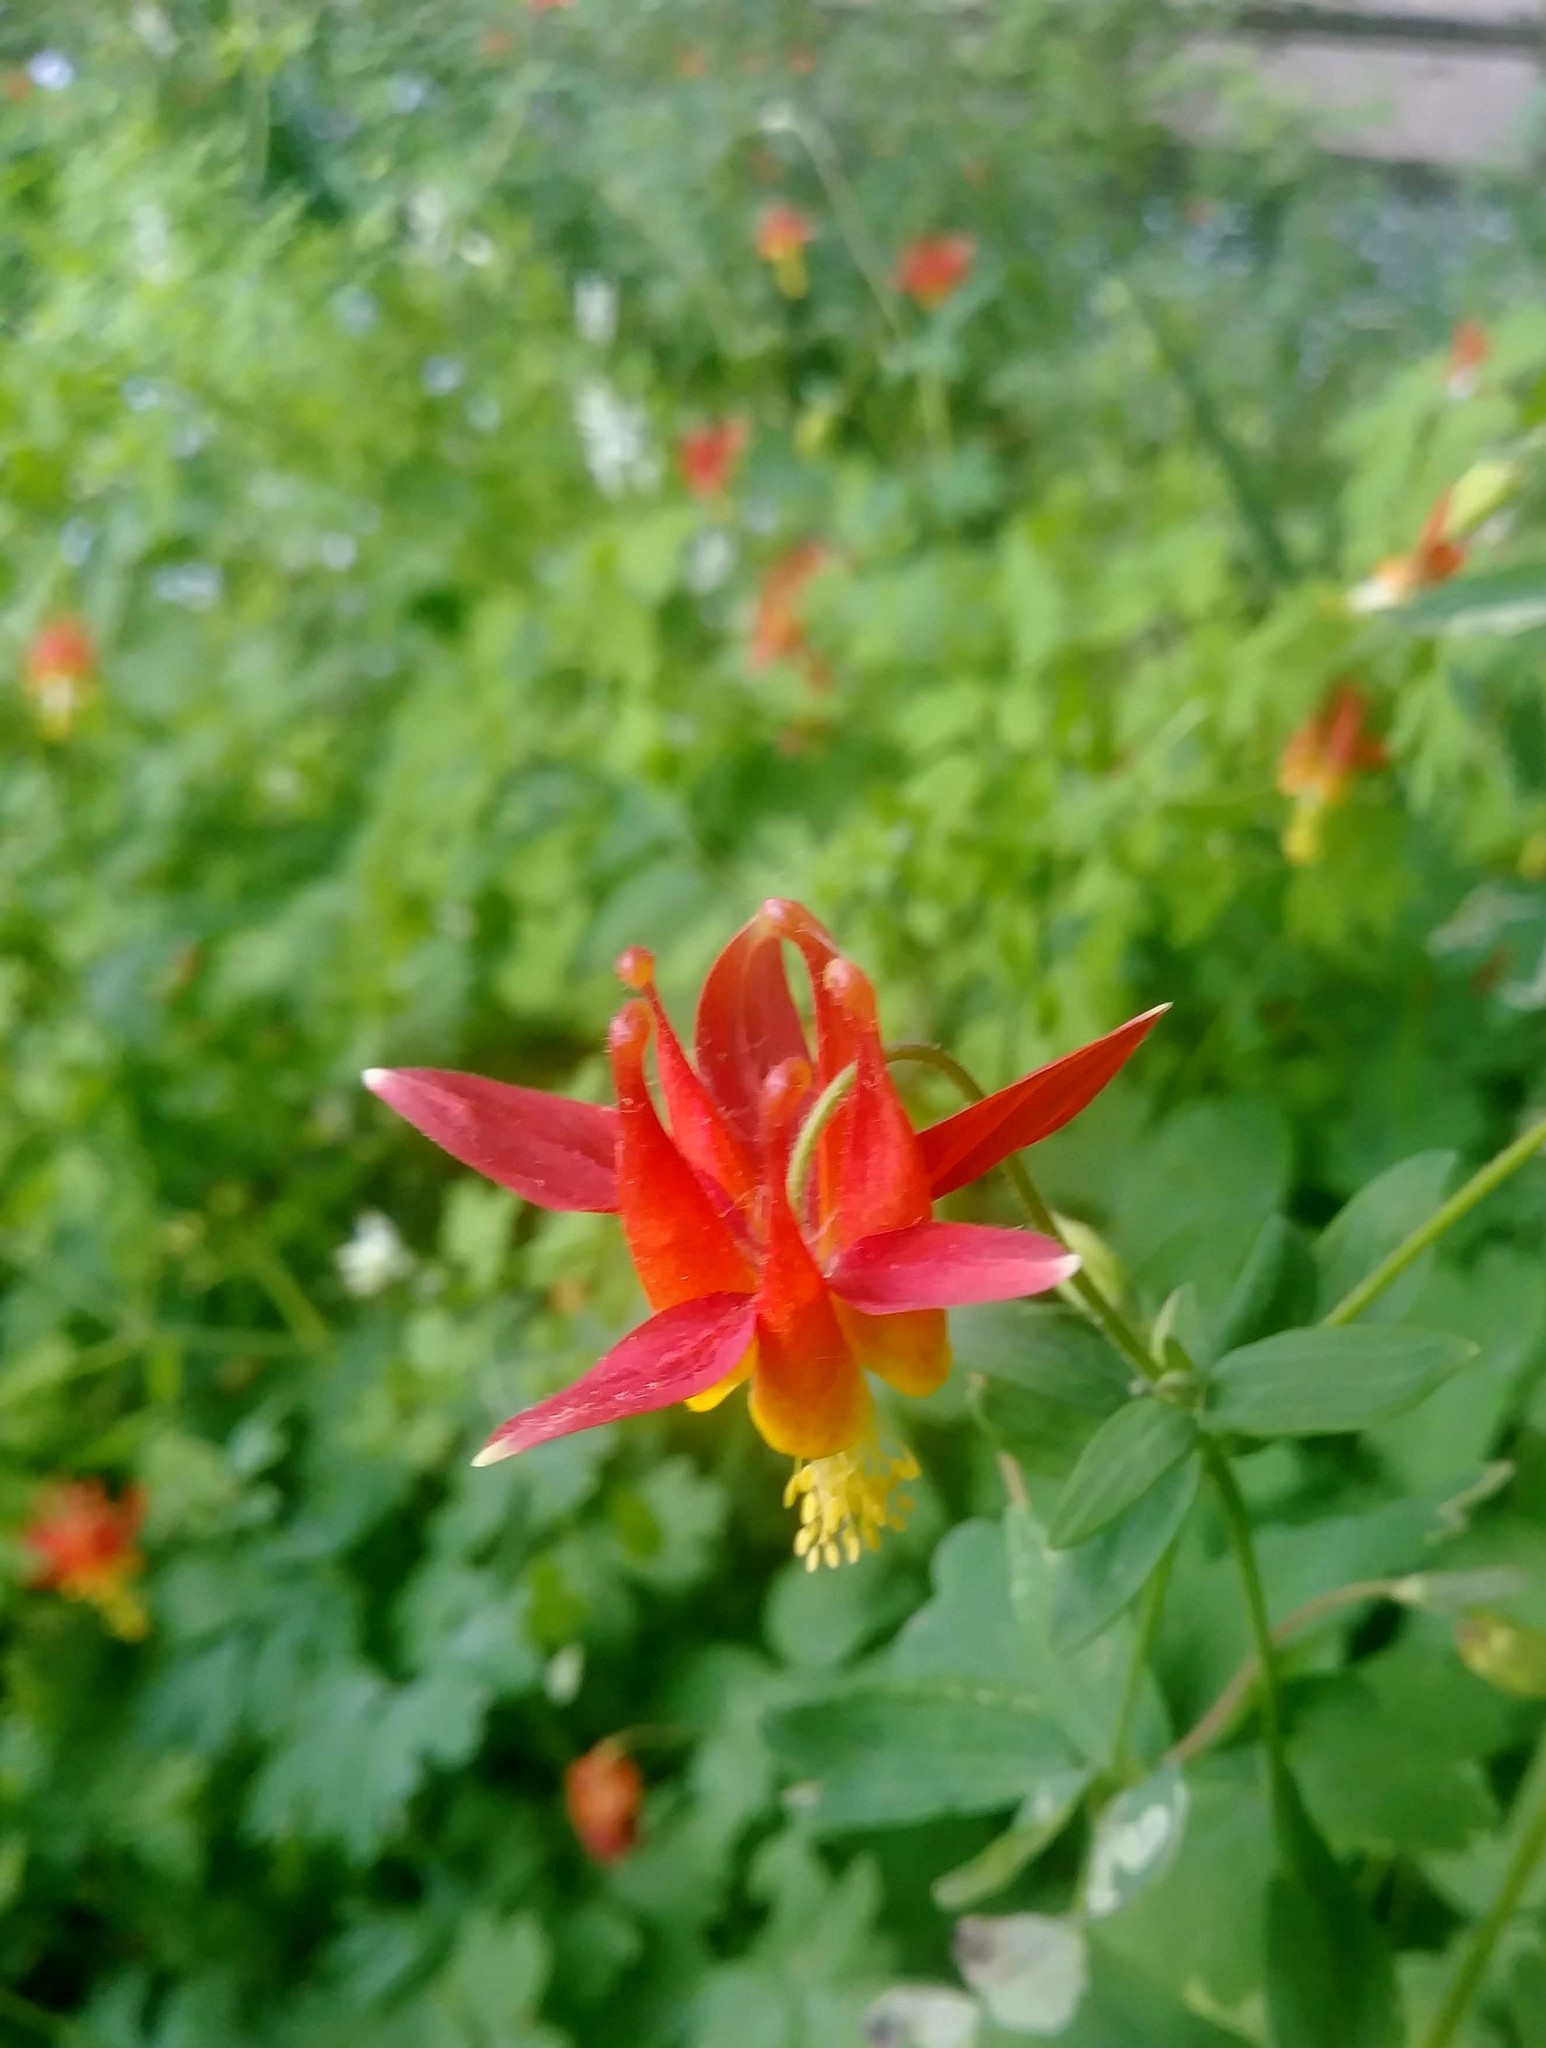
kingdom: Plantae
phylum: Tracheophyta
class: Magnoliopsida
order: Ranunculales
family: Ranunculaceae
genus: Aquilegia
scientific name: Aquilegia formosa
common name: Sitka columbine
